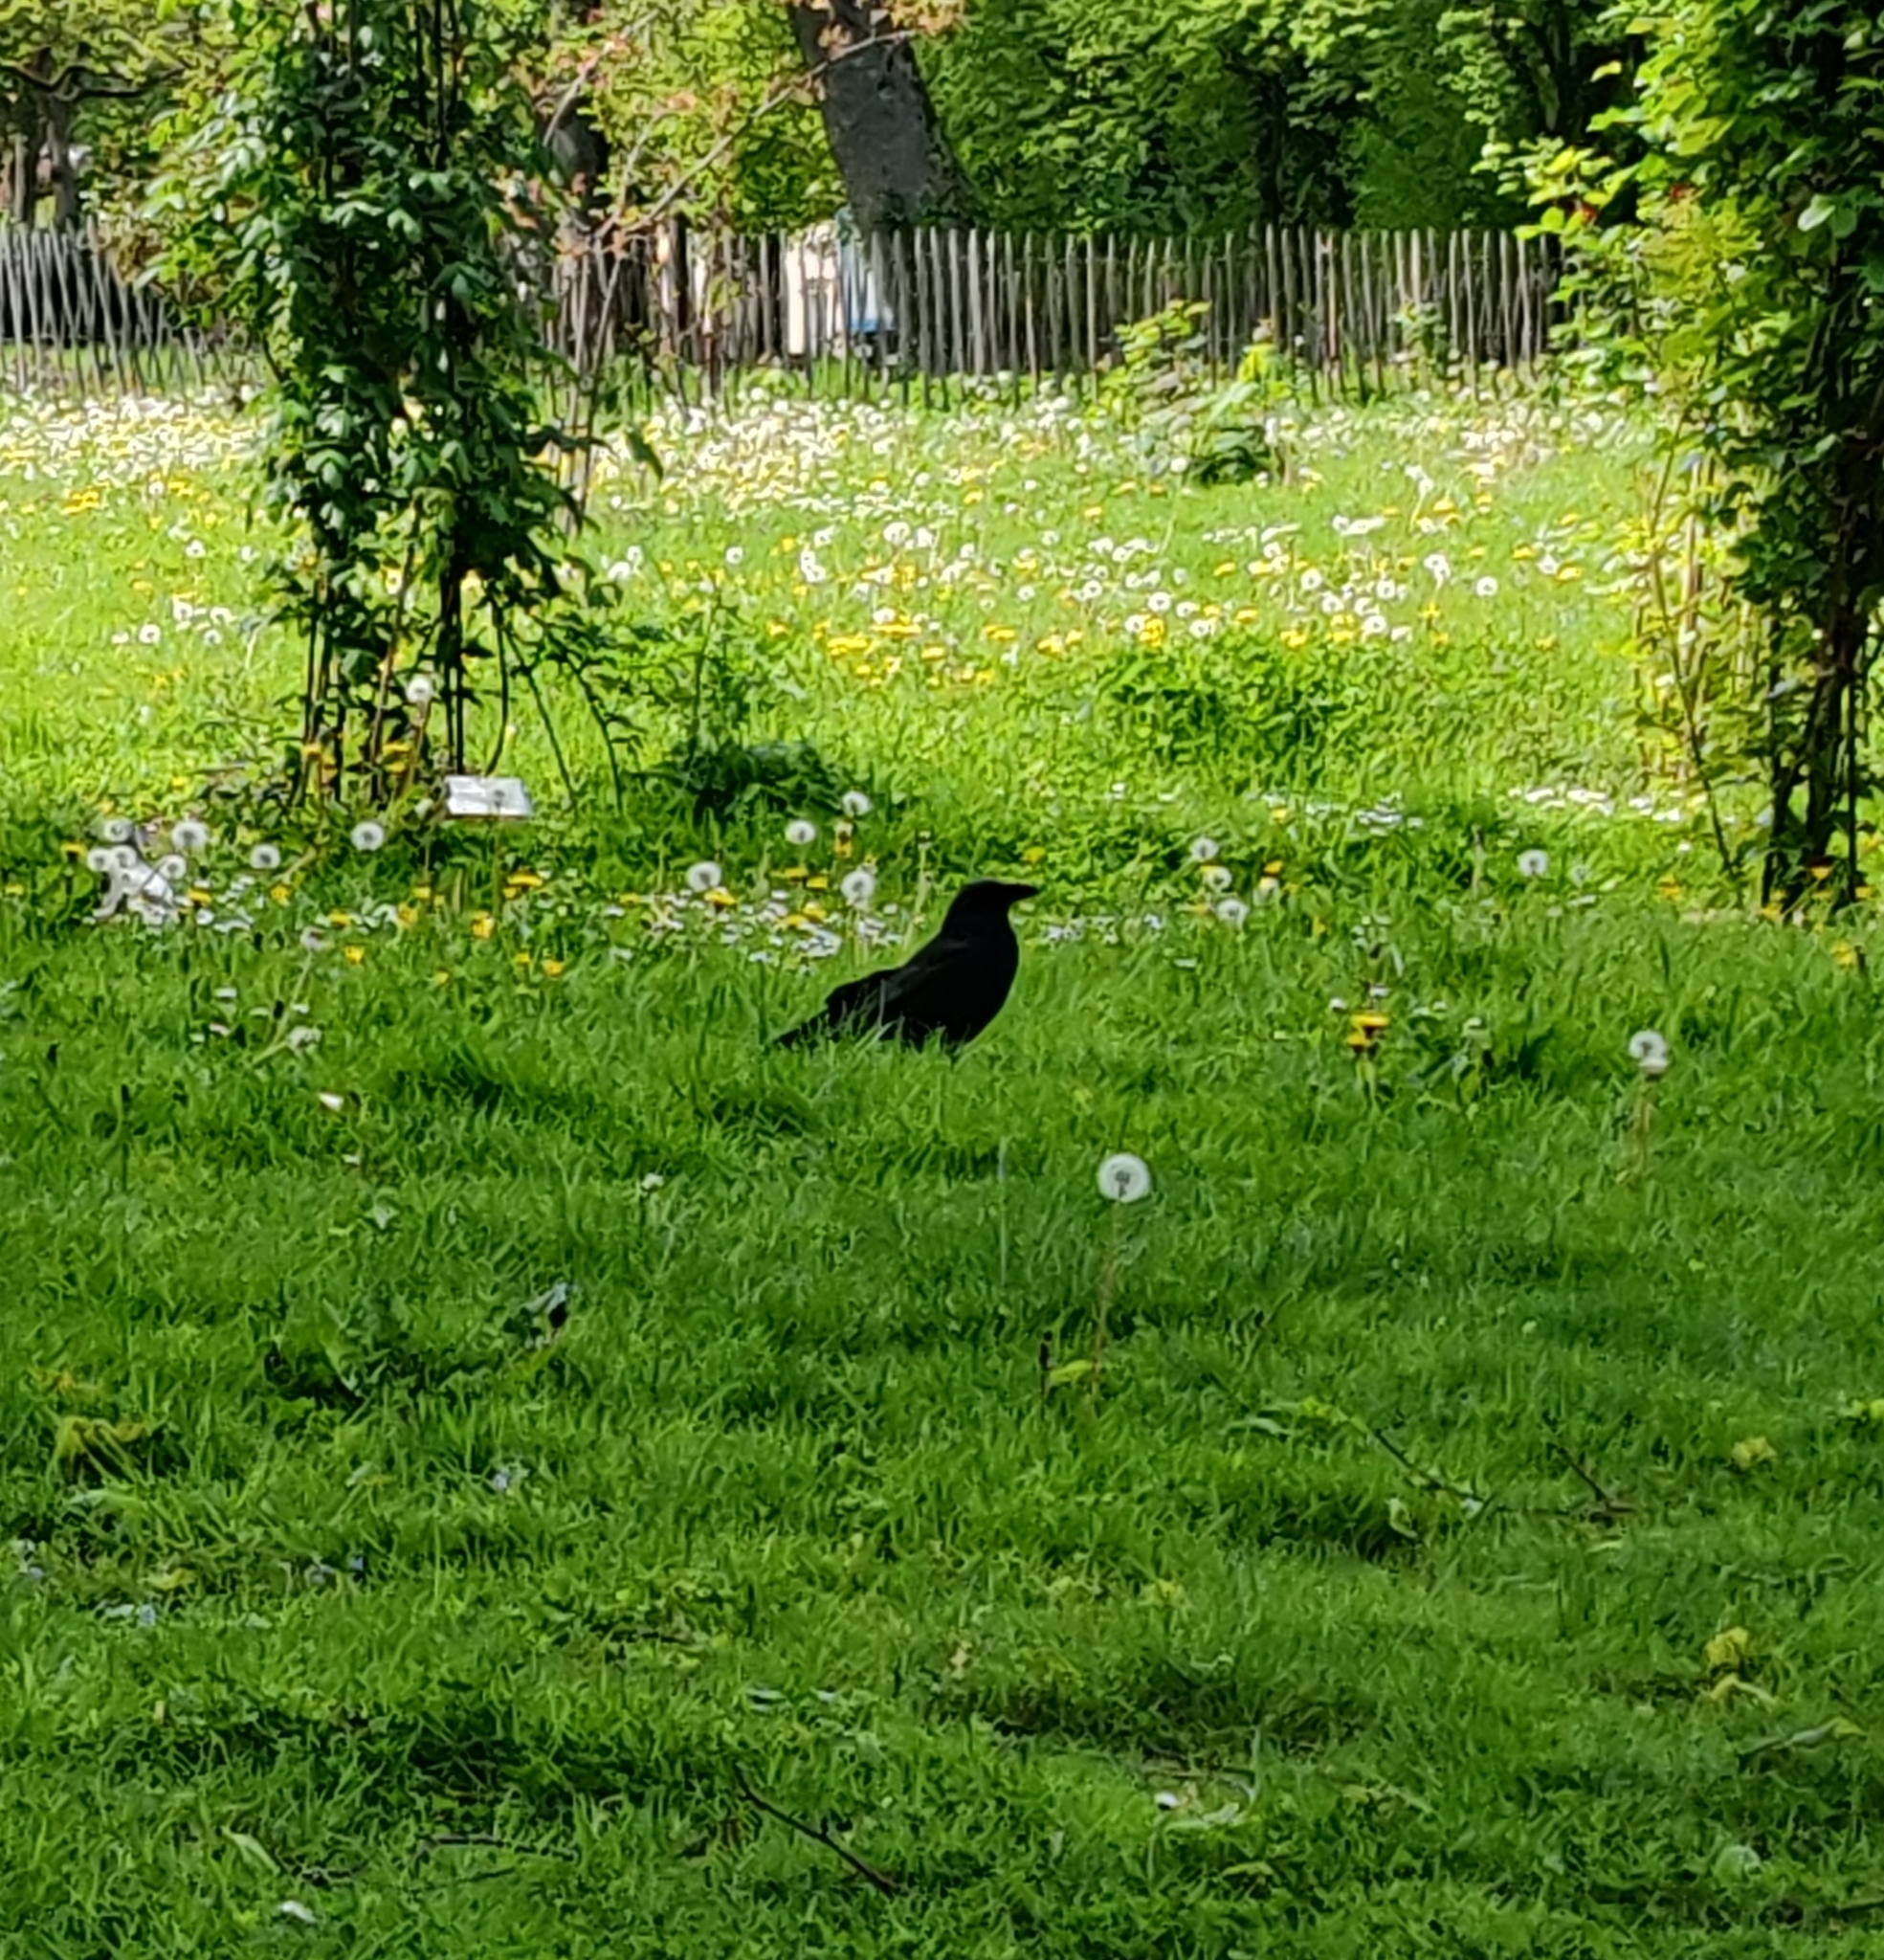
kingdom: Animalia
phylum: Chordata
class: Aves
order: Passeriformes
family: Corvidae
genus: Corvus
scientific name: Corvus corone
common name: Carrion crow
